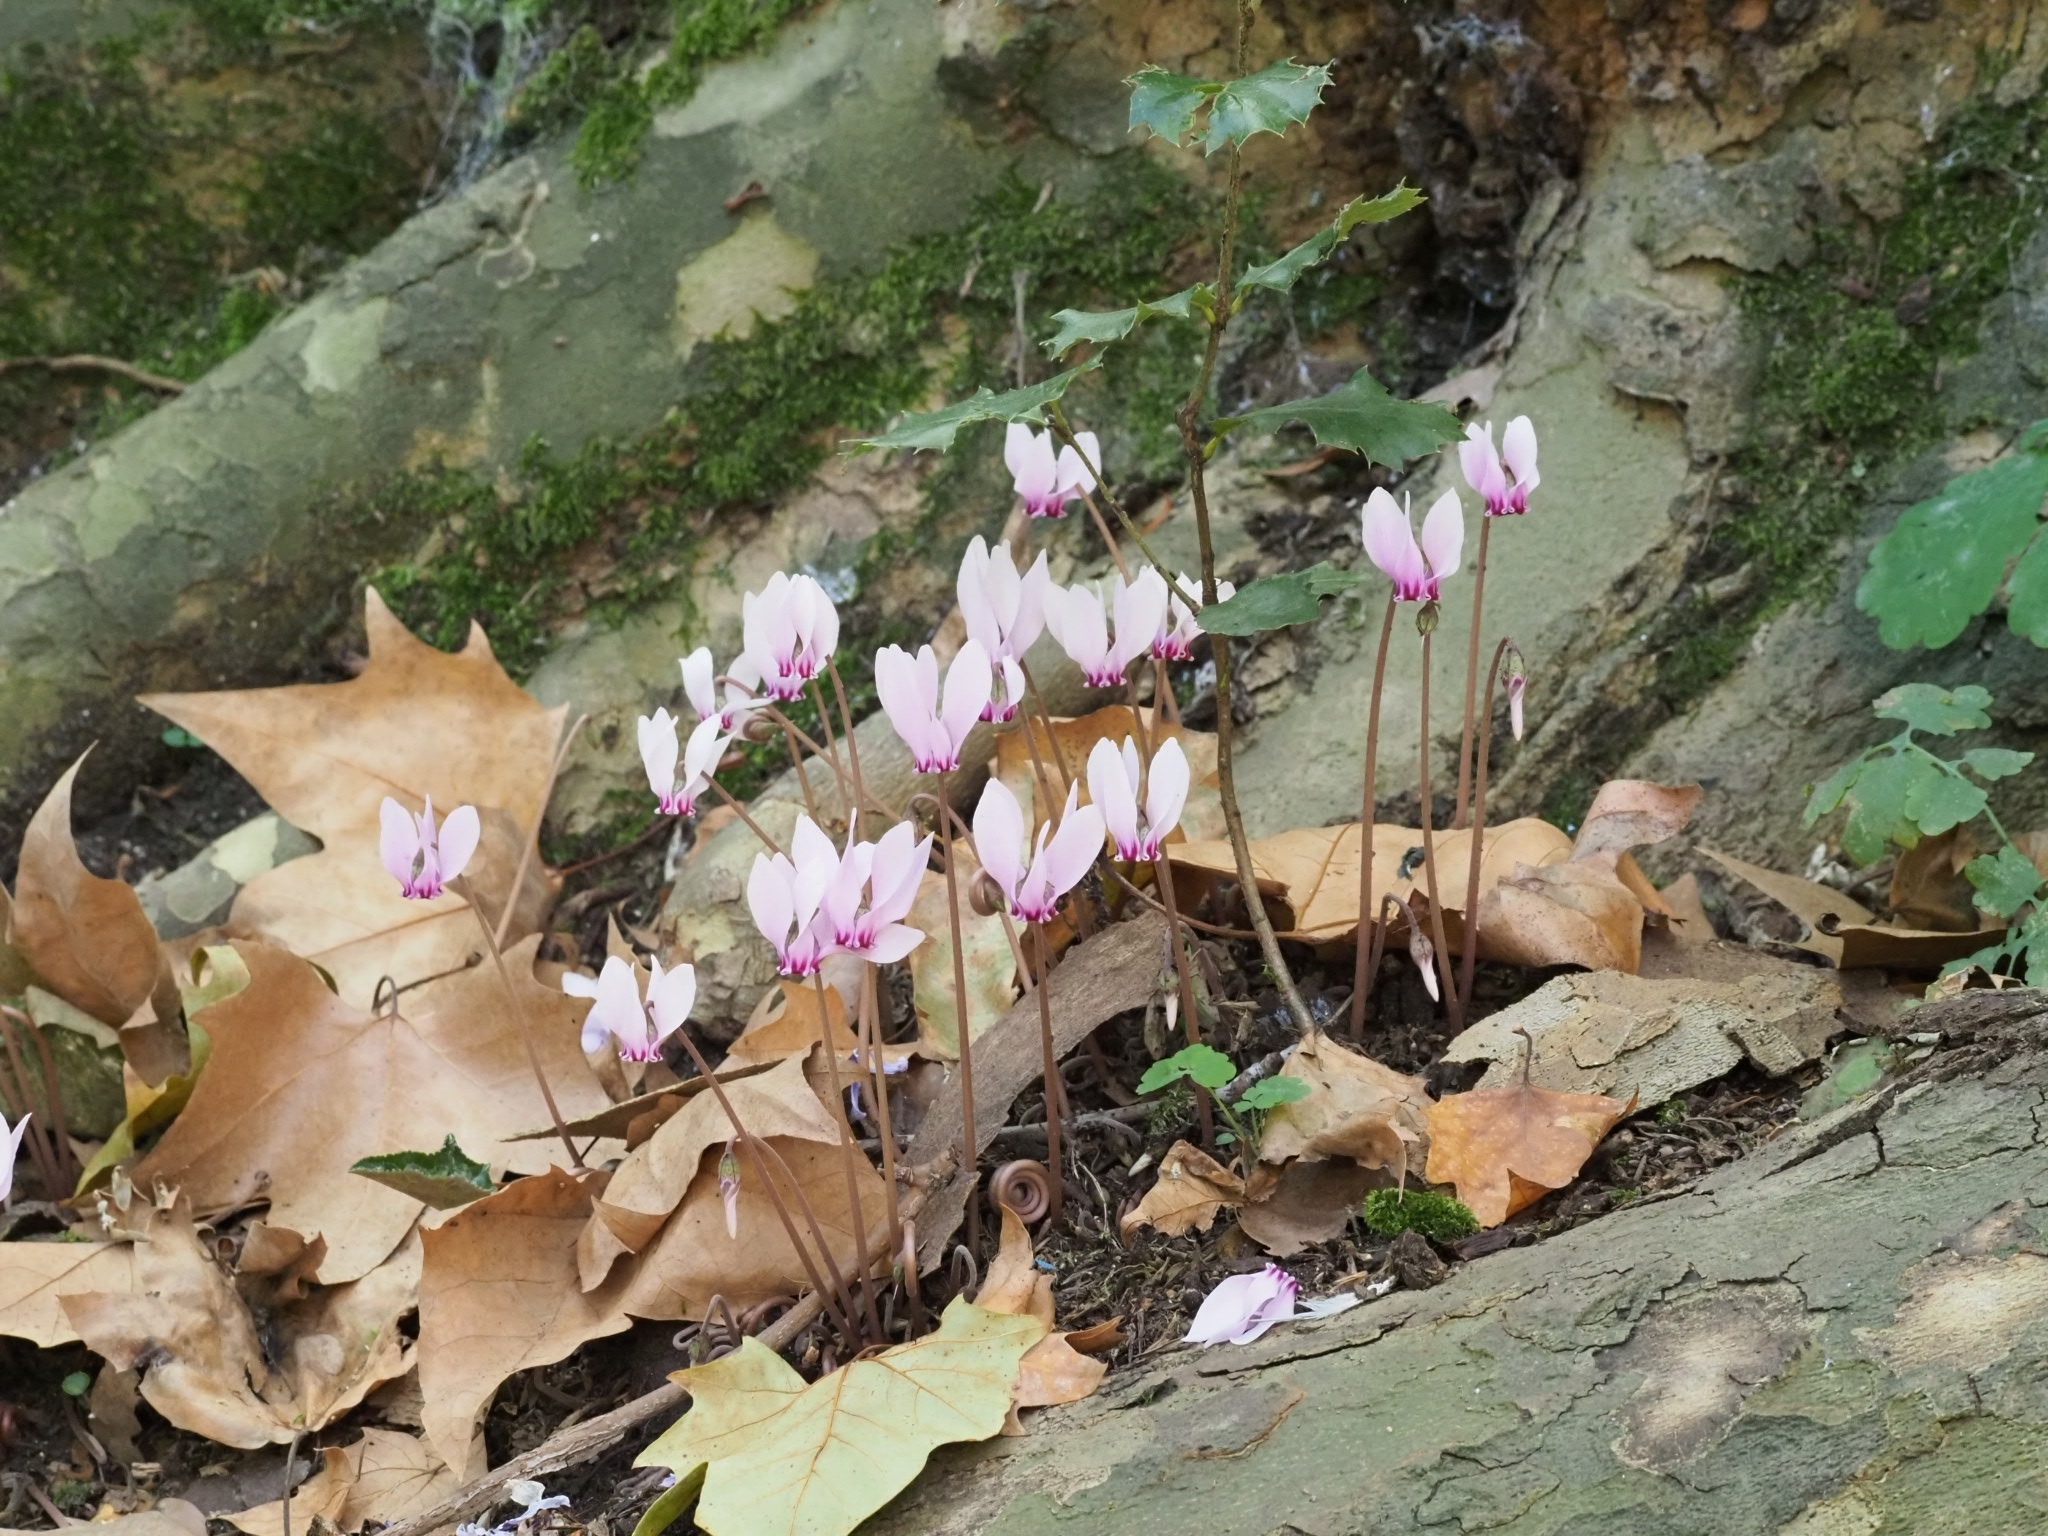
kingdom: Plantae
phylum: Tracheophyta
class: Magnoliopsida
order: Ericales
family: Primulaceae
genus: Cyclamen
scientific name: Cyclamen hederifolium
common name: Sowbread
